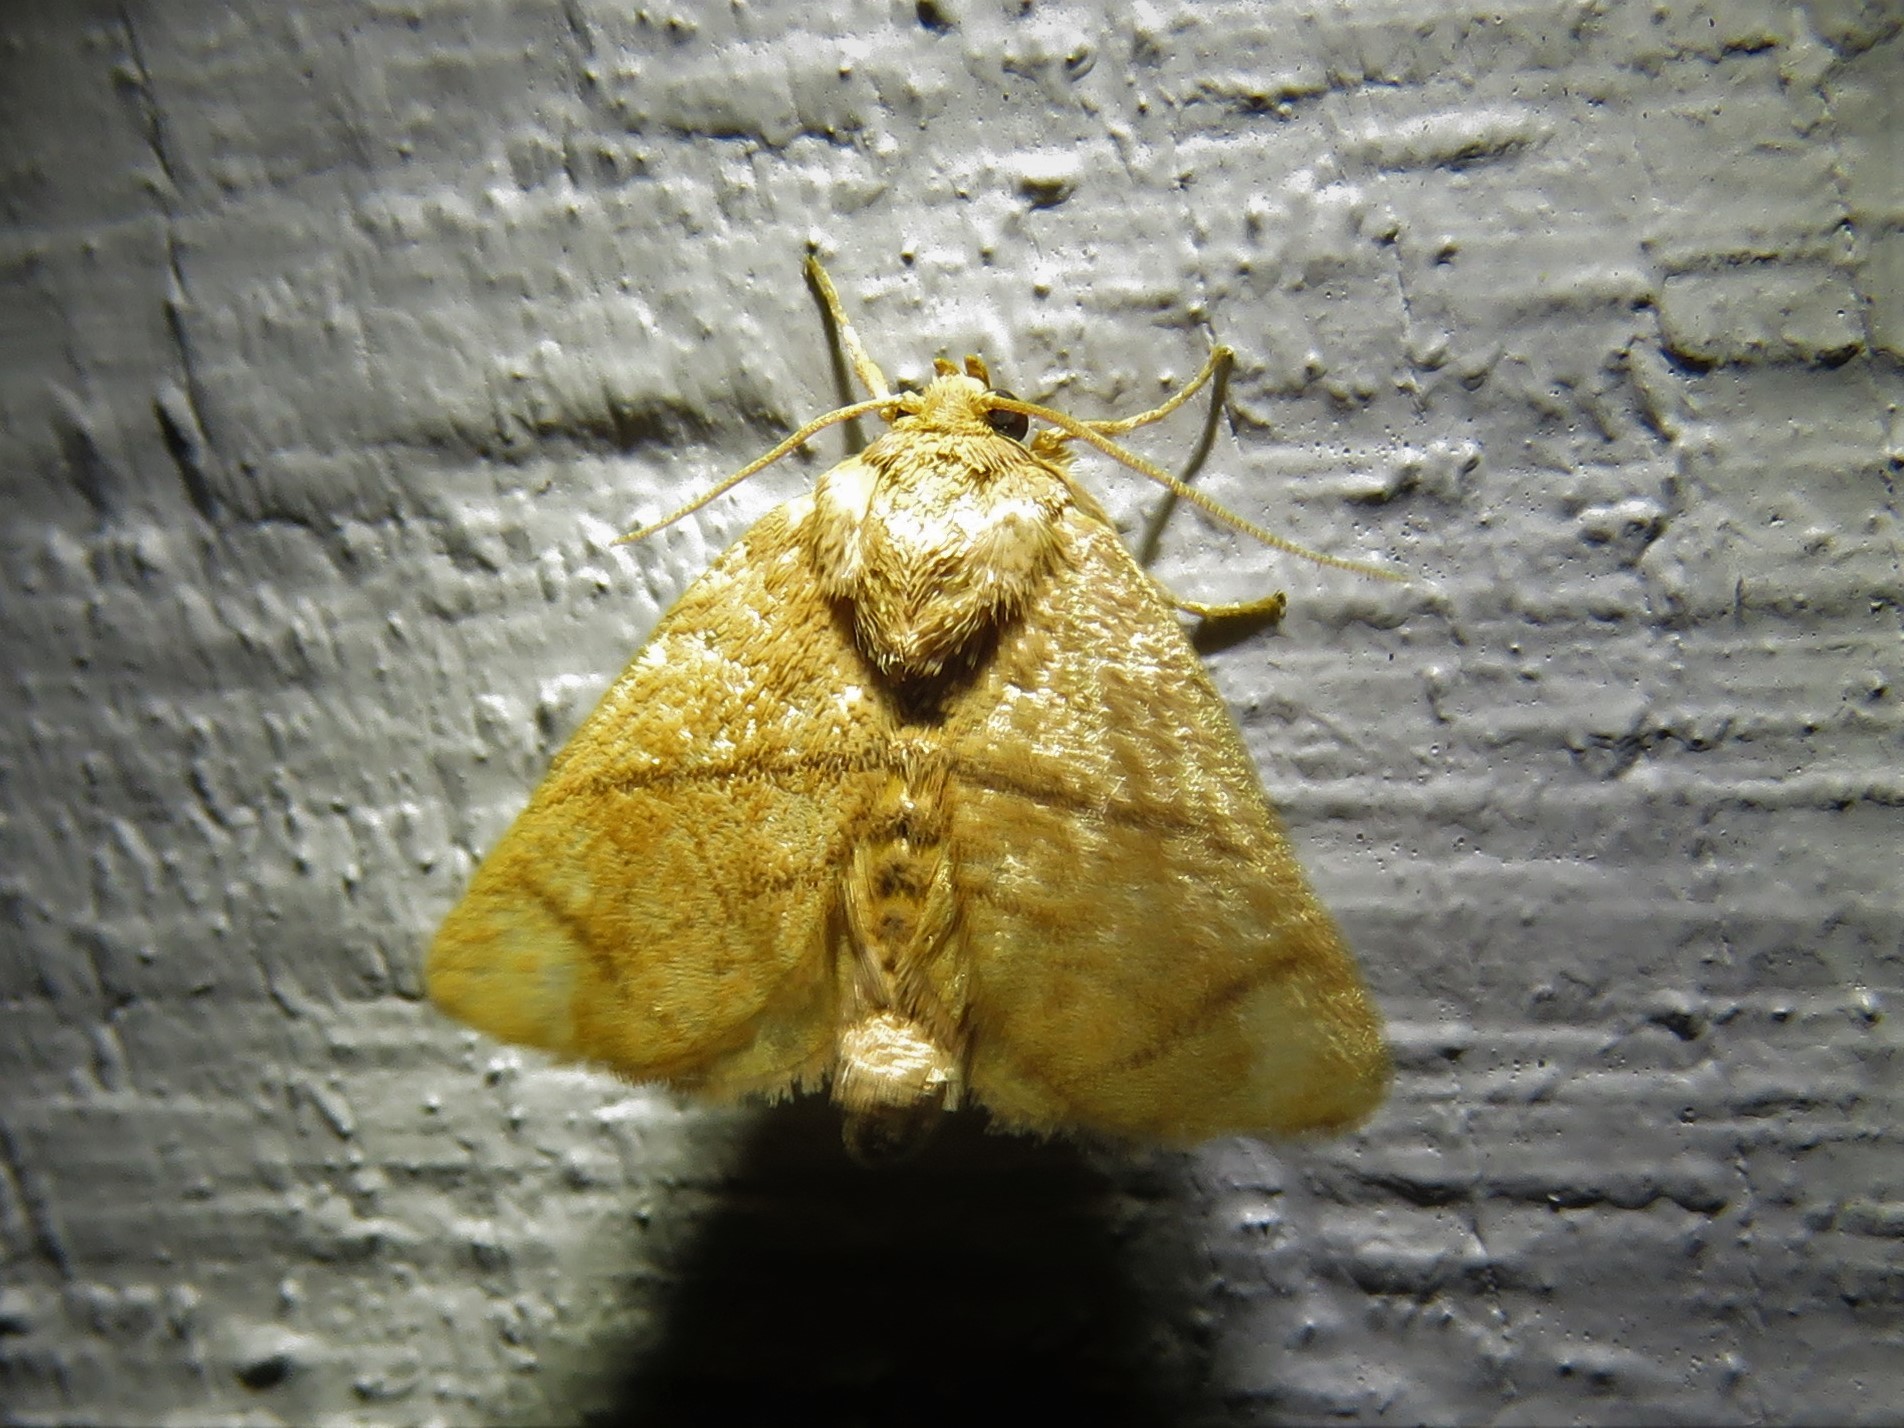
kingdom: Animalia
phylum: Arthropoda
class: Insecta
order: Lepidoptera
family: Limacodidae
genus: Apoda
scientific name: Apoda y-inversa
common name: Yellow-collared slug moth
